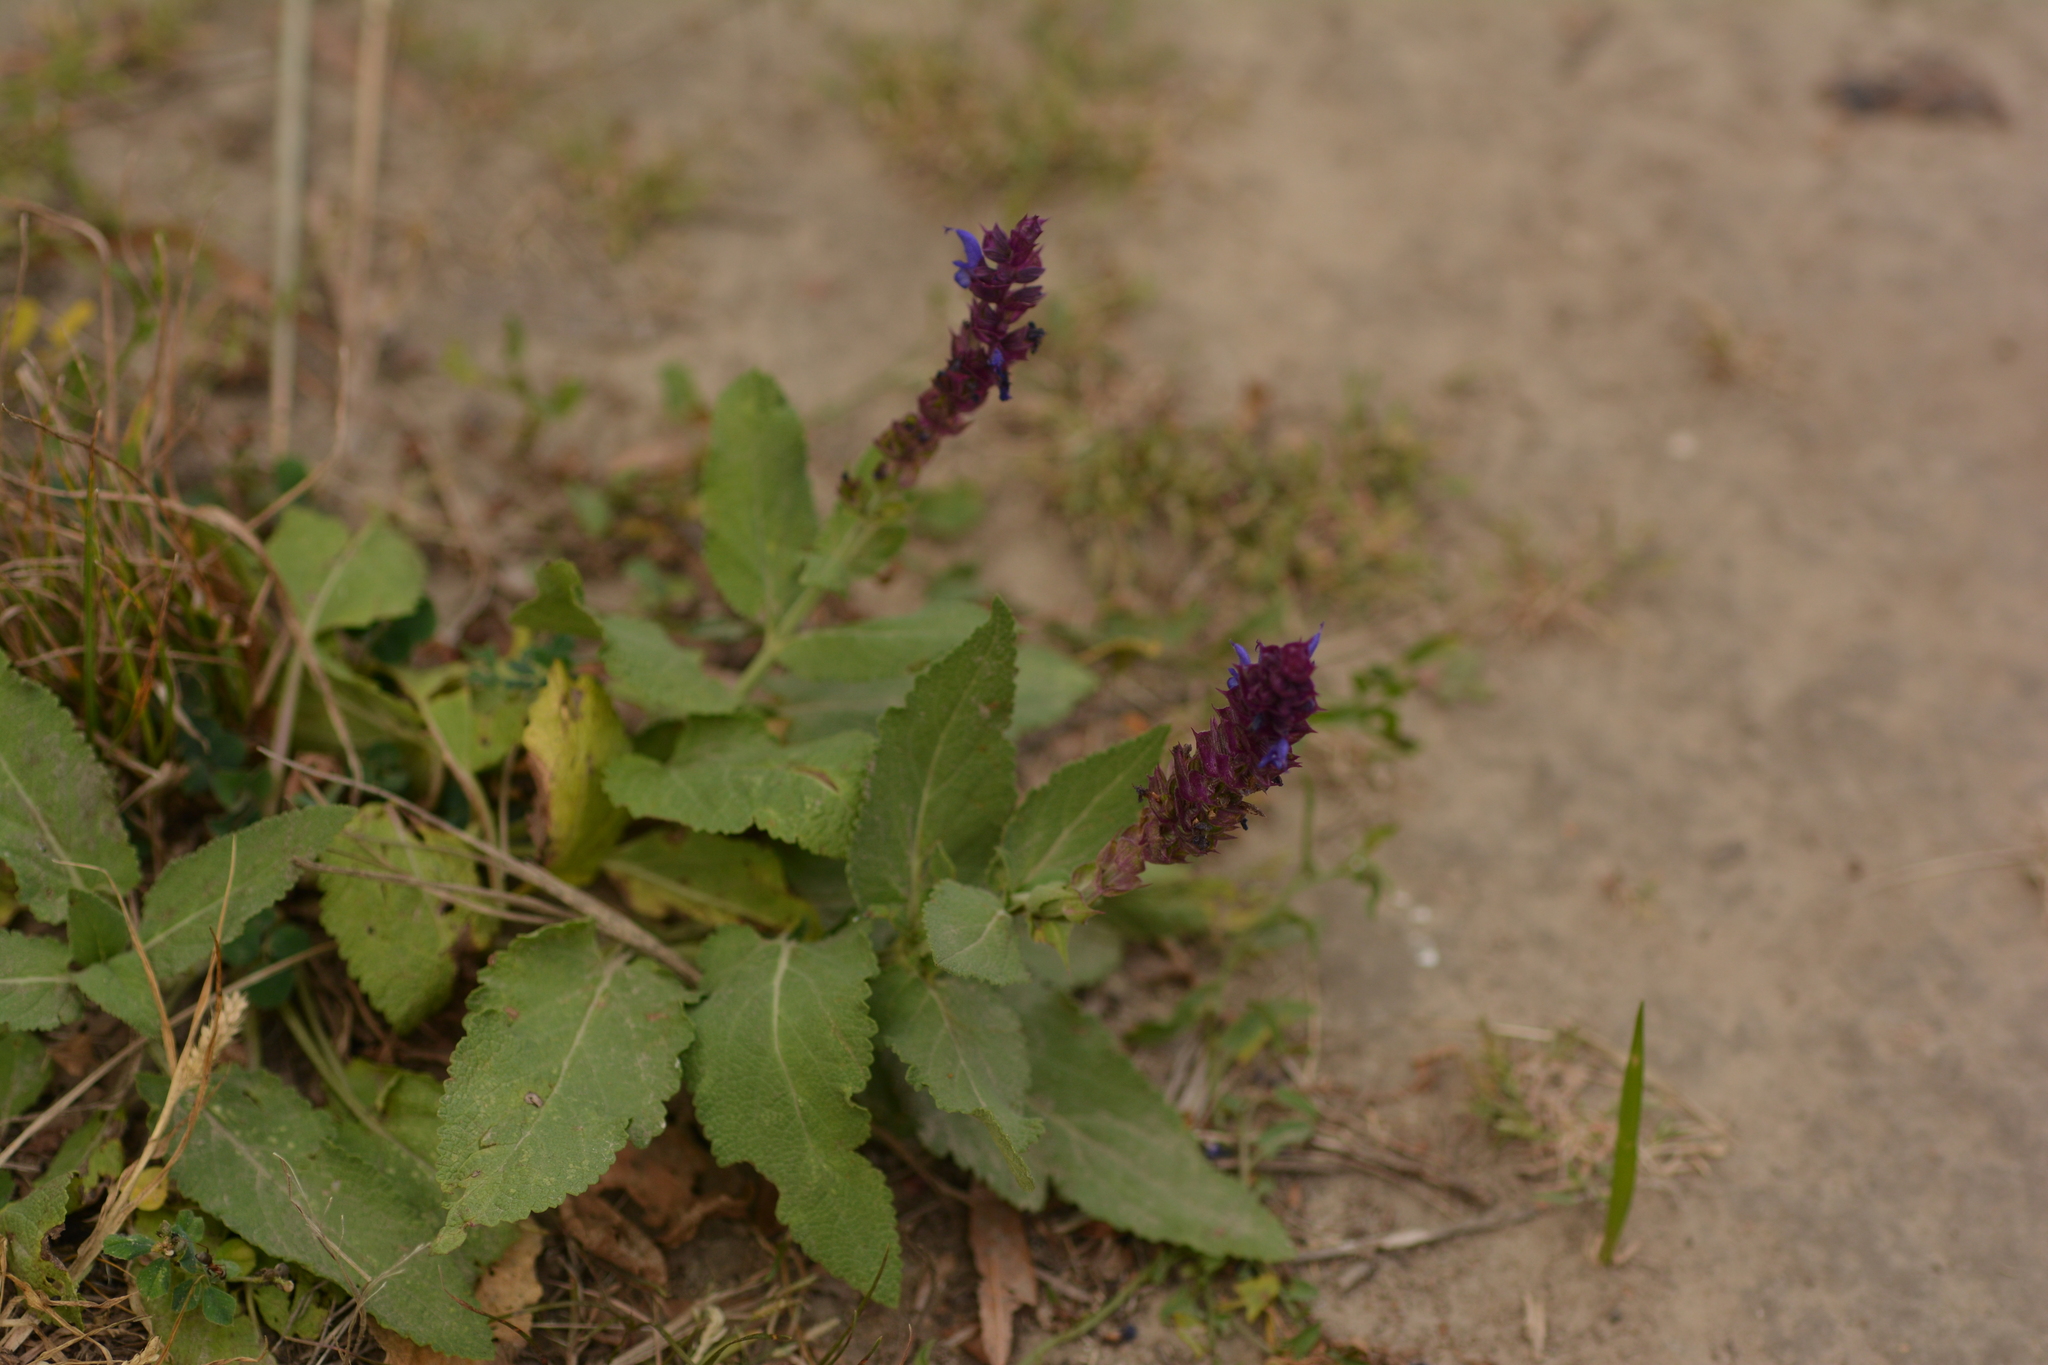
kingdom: Plantae
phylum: Tracheophyta
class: Magnoliopsida
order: Lamiales
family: Lamiaceae
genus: Salvia
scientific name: Salvia nemorosa
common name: Balkan clary
